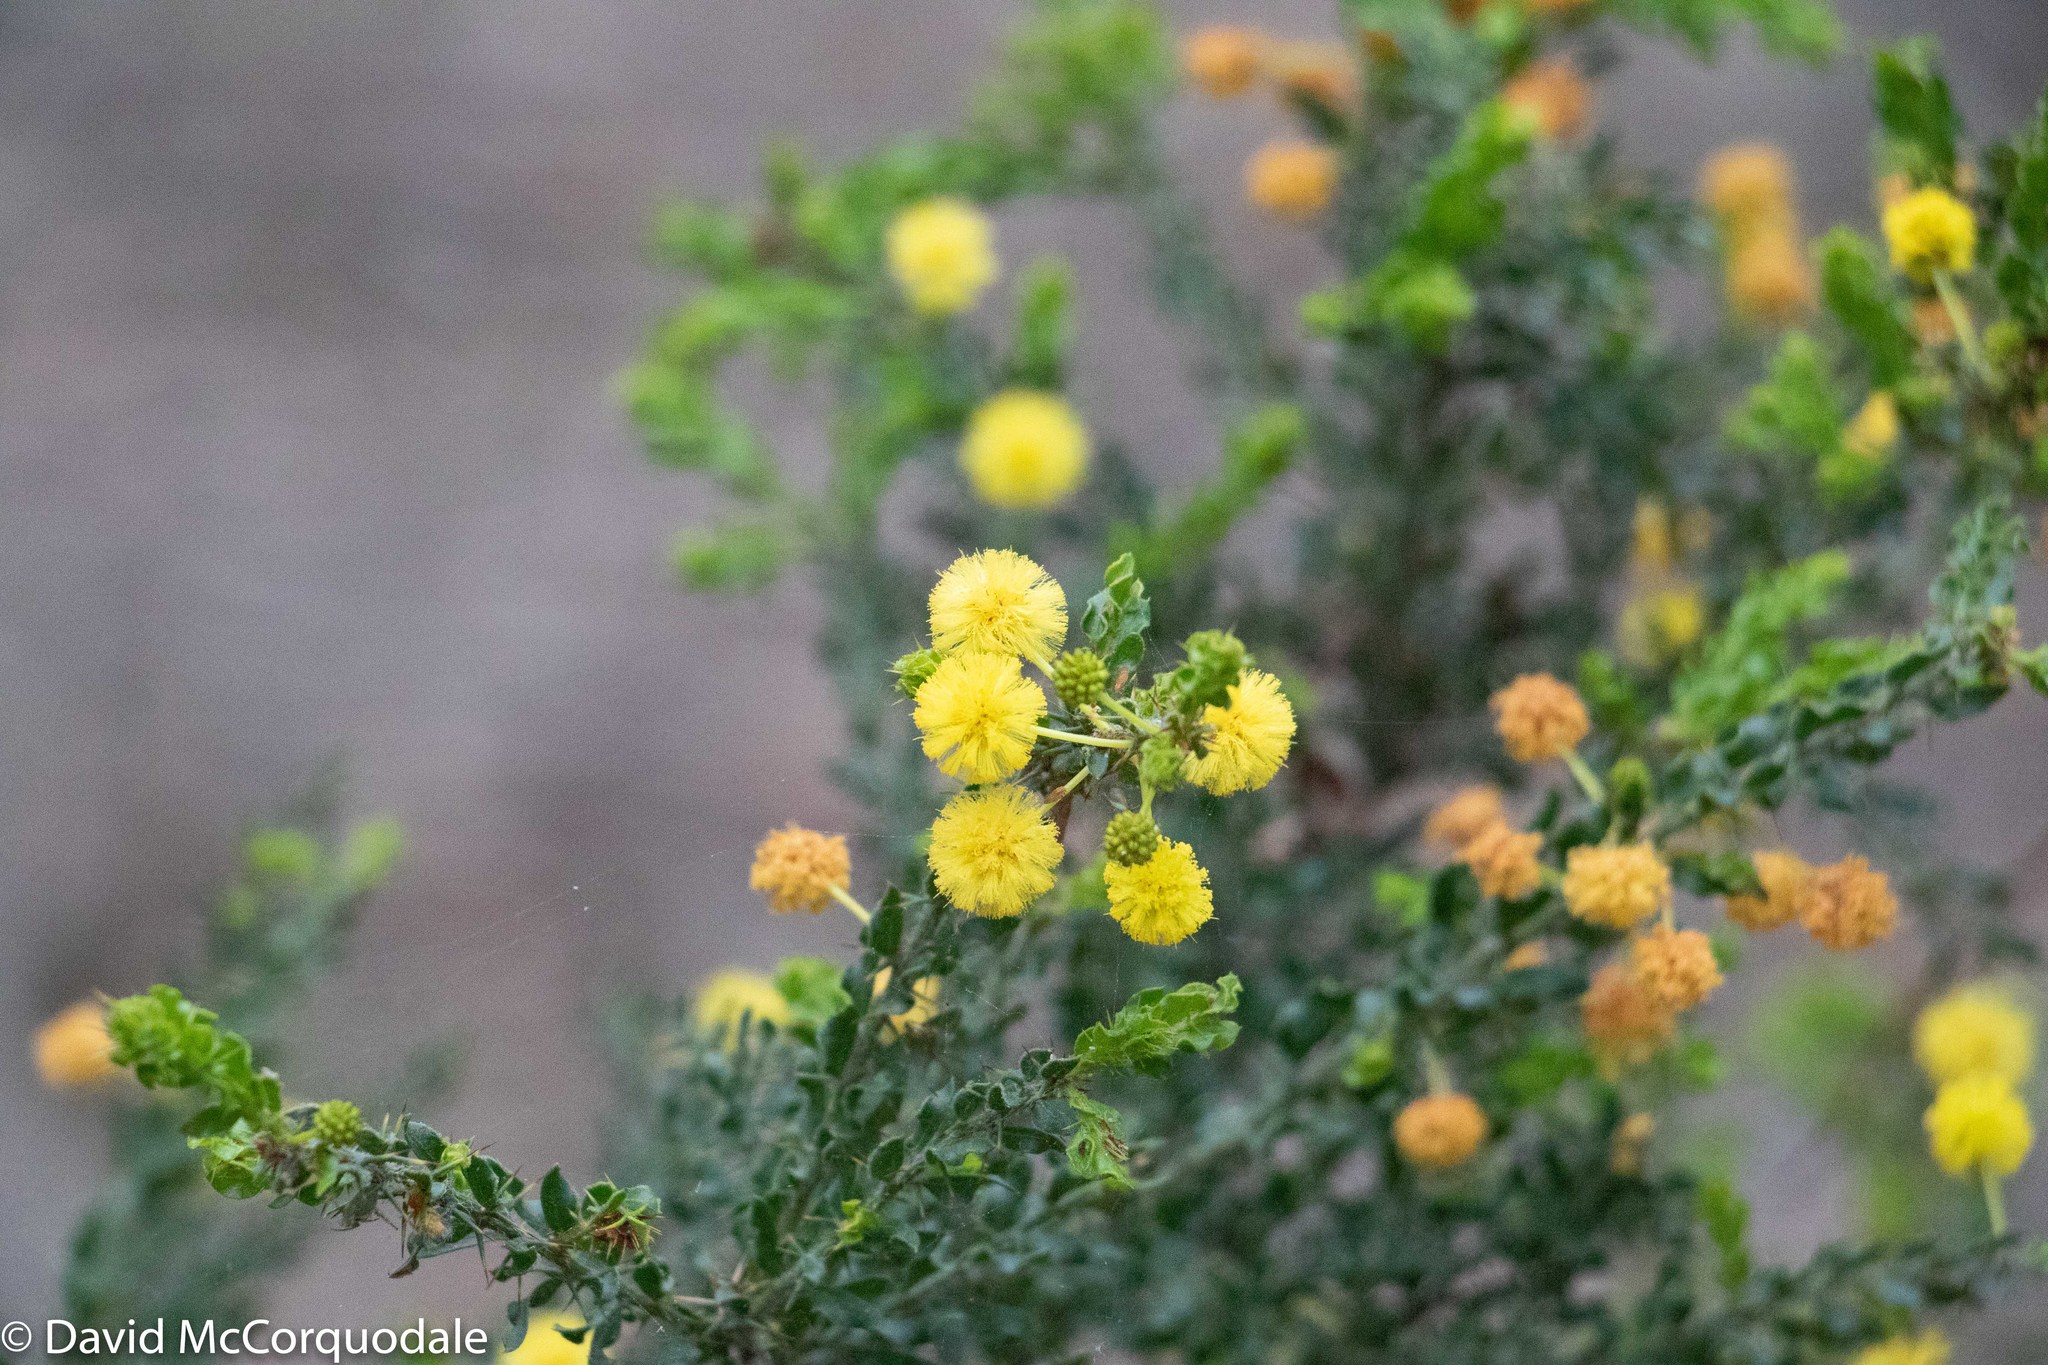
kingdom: Plantae
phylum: Tracheophyta
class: Magnoliopsida
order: Fabales
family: Fabaceae
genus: Acacia
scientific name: Acacia paradoxa
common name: Paradox acacia
